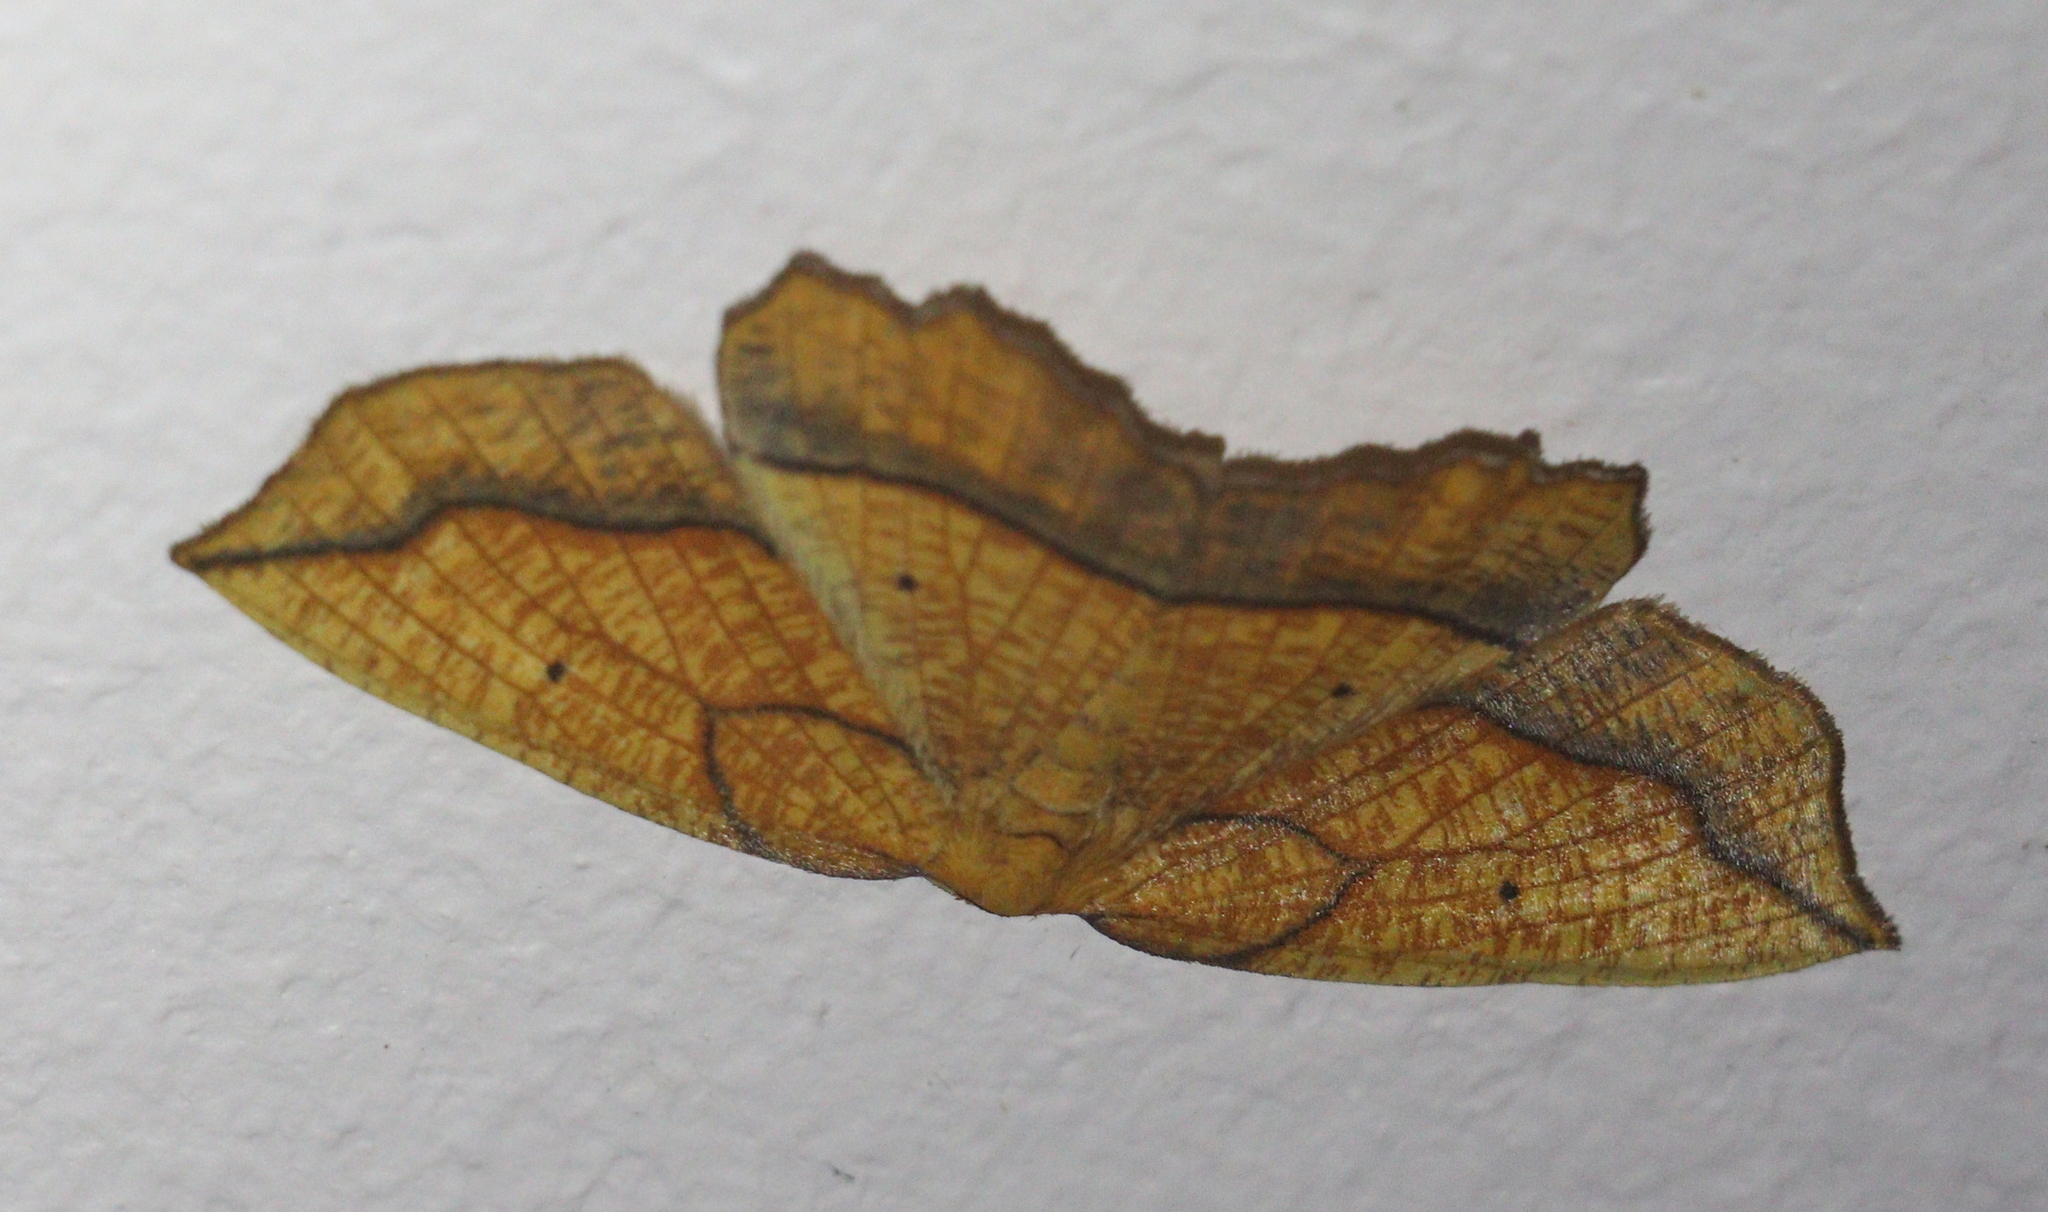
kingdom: Animalia
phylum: Arthropoda
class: Insecta
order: Lepidoptera
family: Geometridae
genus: Epione
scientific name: Epione repandaria
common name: Bordered beauty
